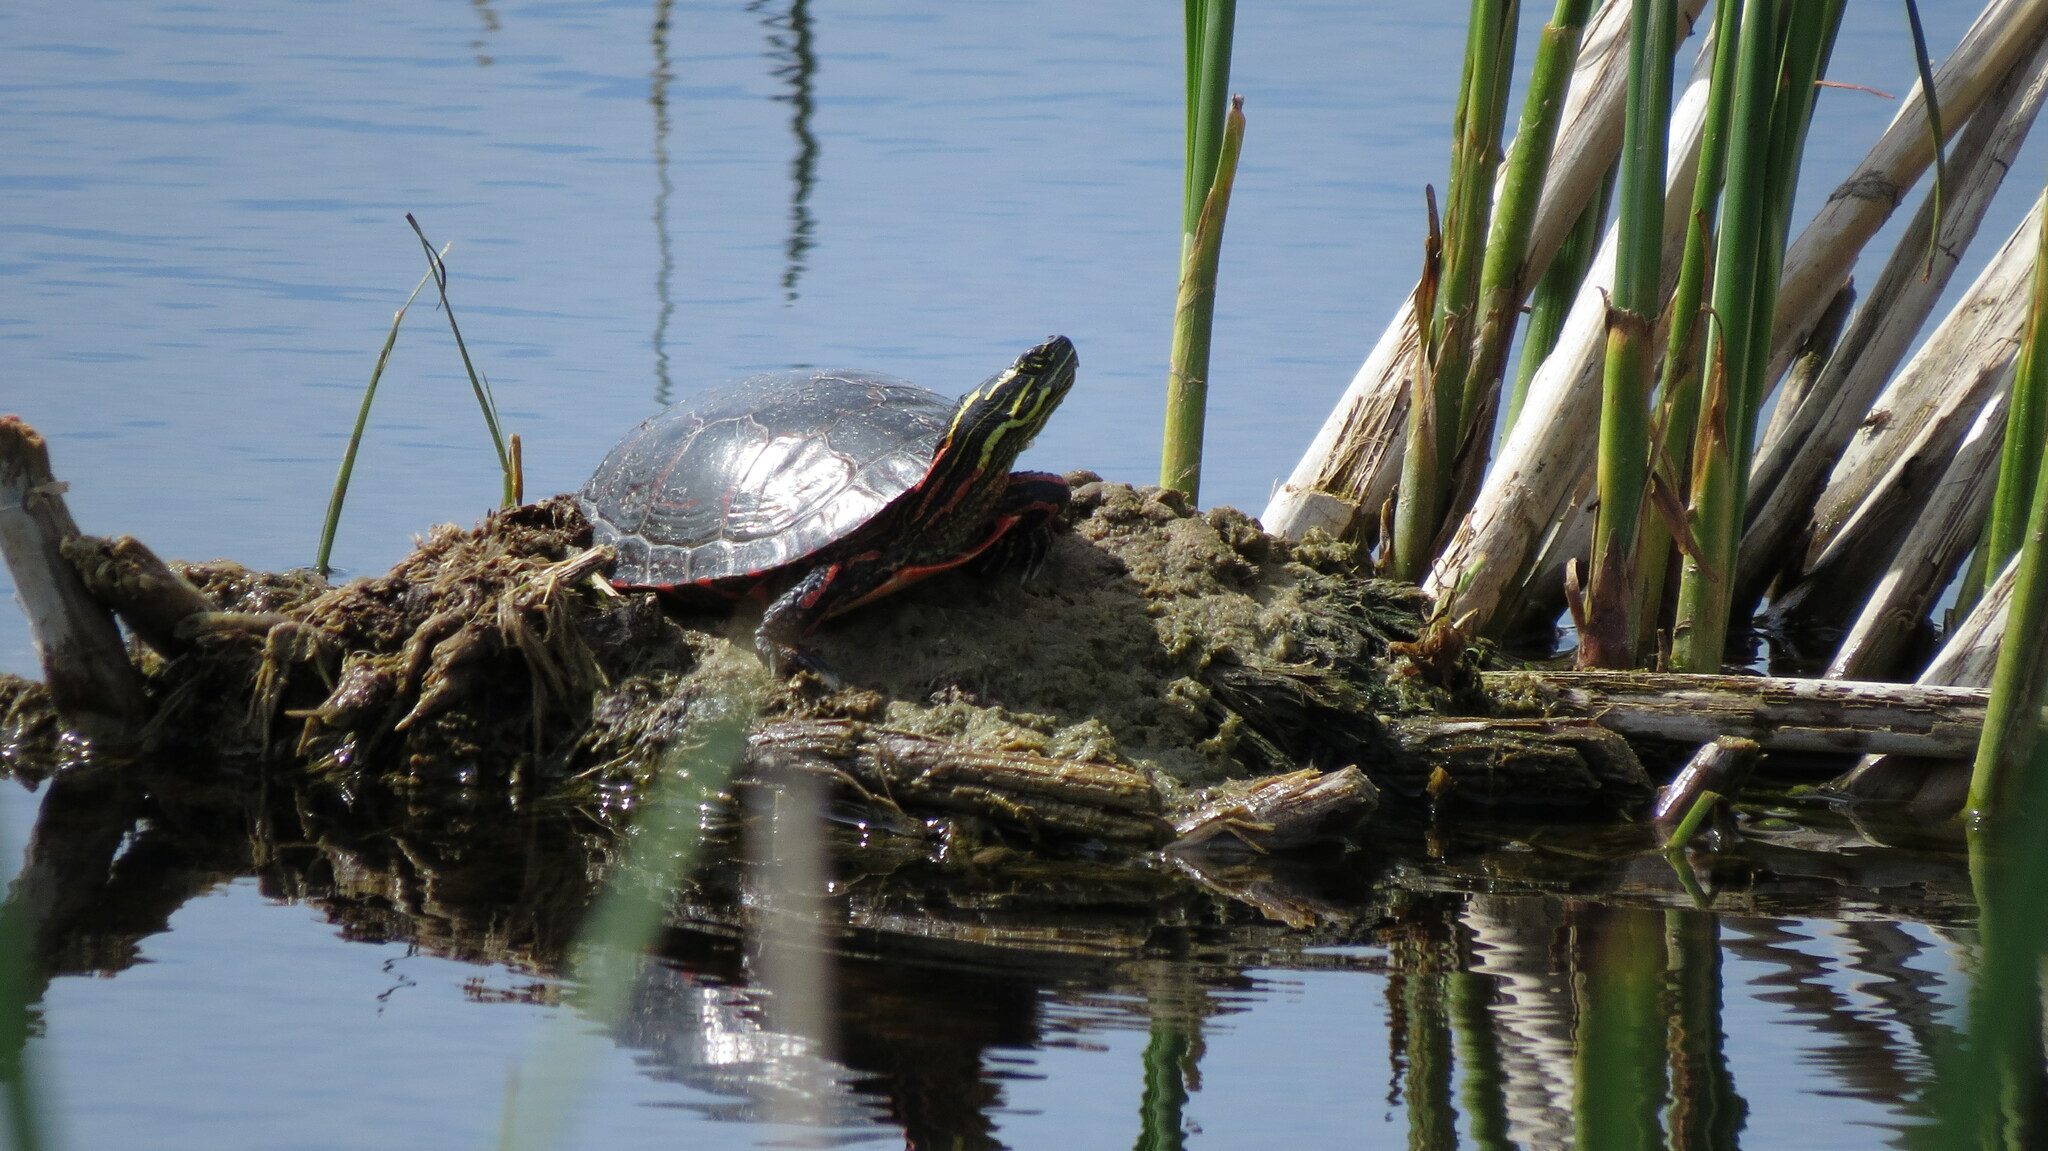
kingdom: Animalia
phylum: Chordata
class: Testudines
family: Emydidae
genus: Chrysemys
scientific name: Chrysemys picta
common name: Painted turtle
